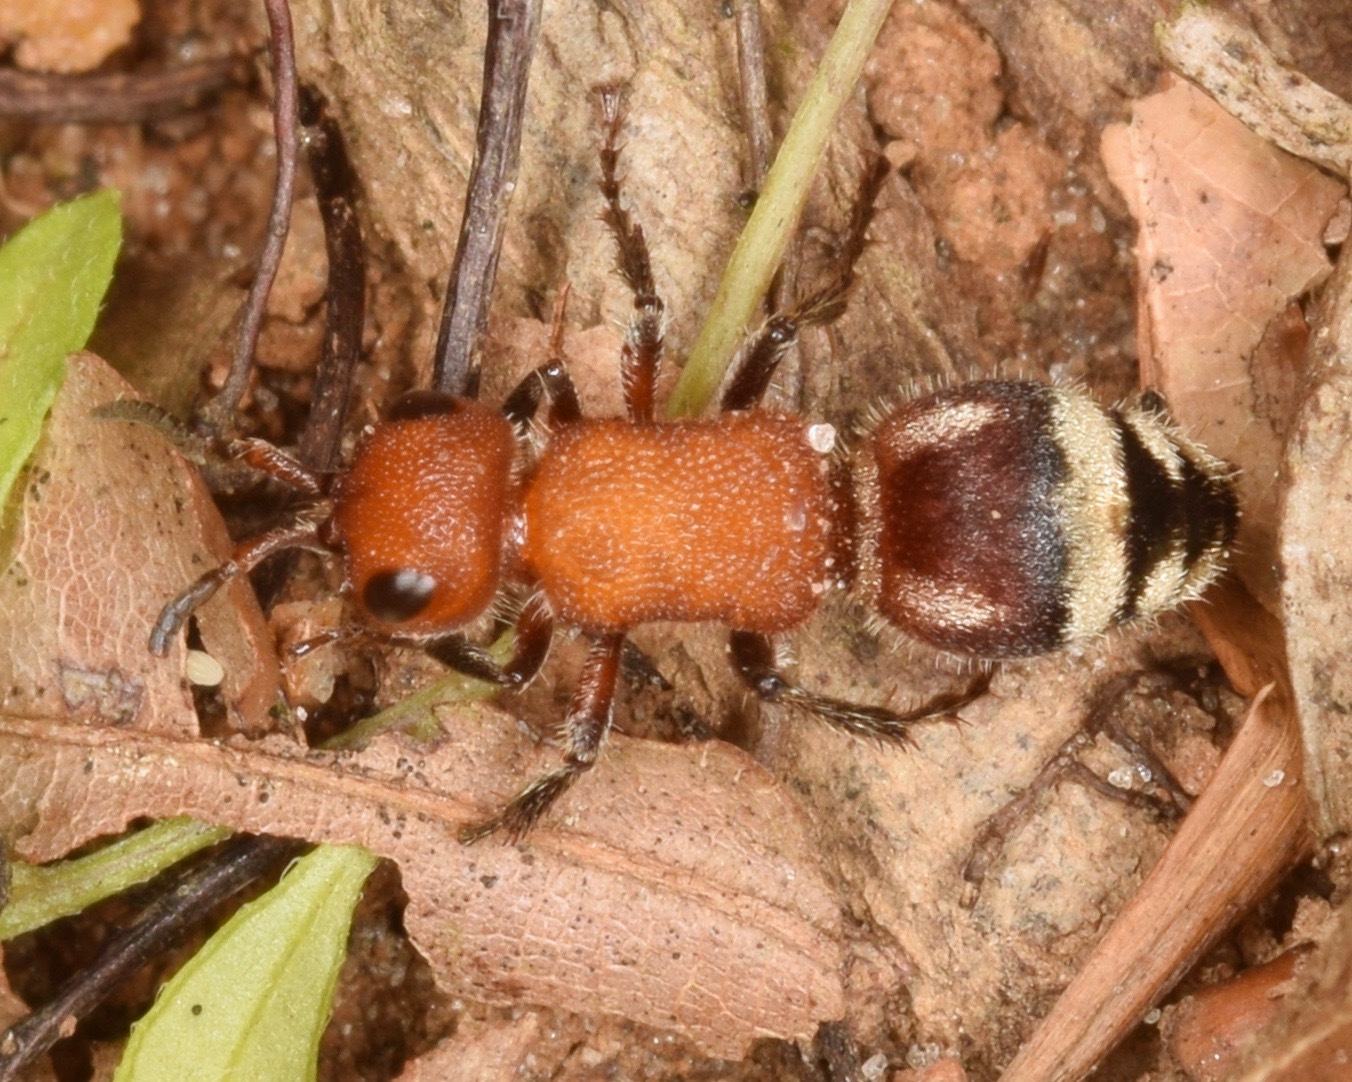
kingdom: Animalia
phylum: Arthropoda
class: Insecta
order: Hymenoptera
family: Mutillidae
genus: Timulla
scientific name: Timulla
